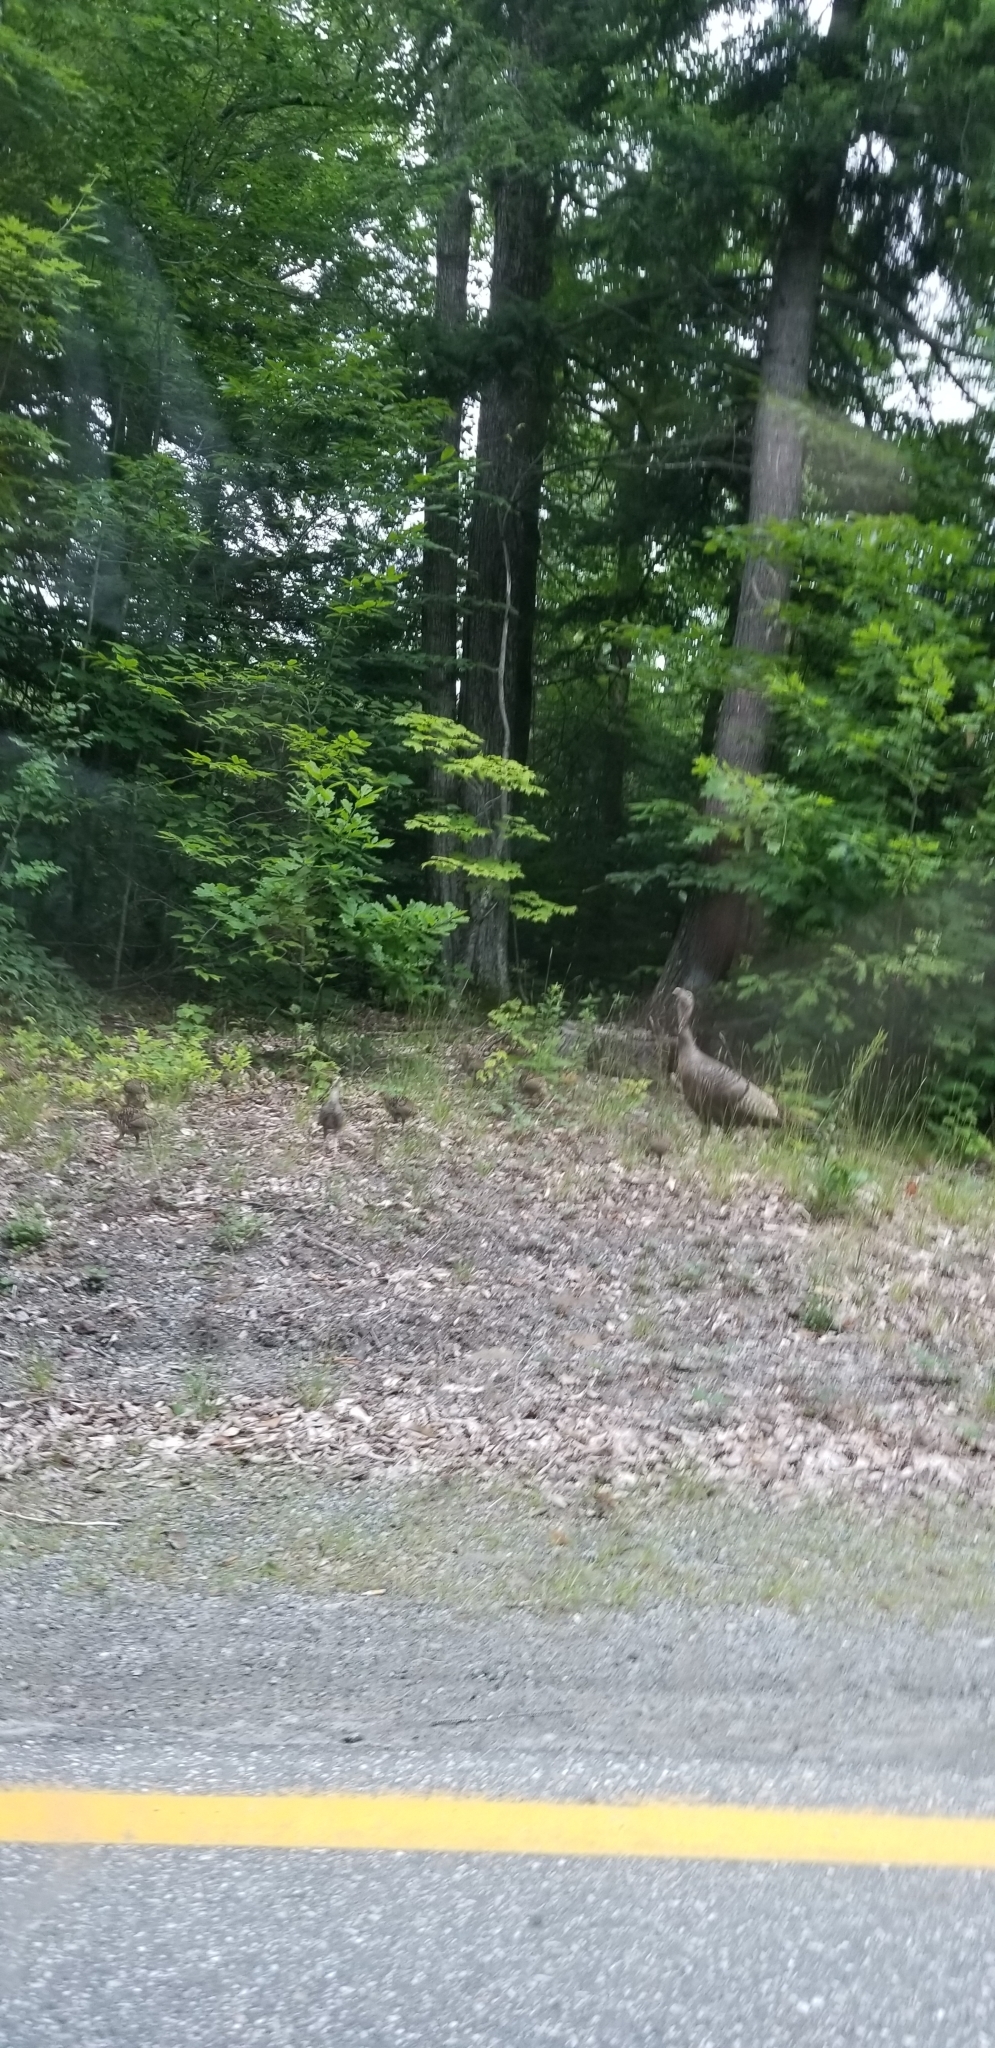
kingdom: Animalia
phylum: Chordata
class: Aves
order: Galliformes
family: Phasianidae
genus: Meleagris
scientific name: Meleagris gallopavo
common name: Wild turkey
